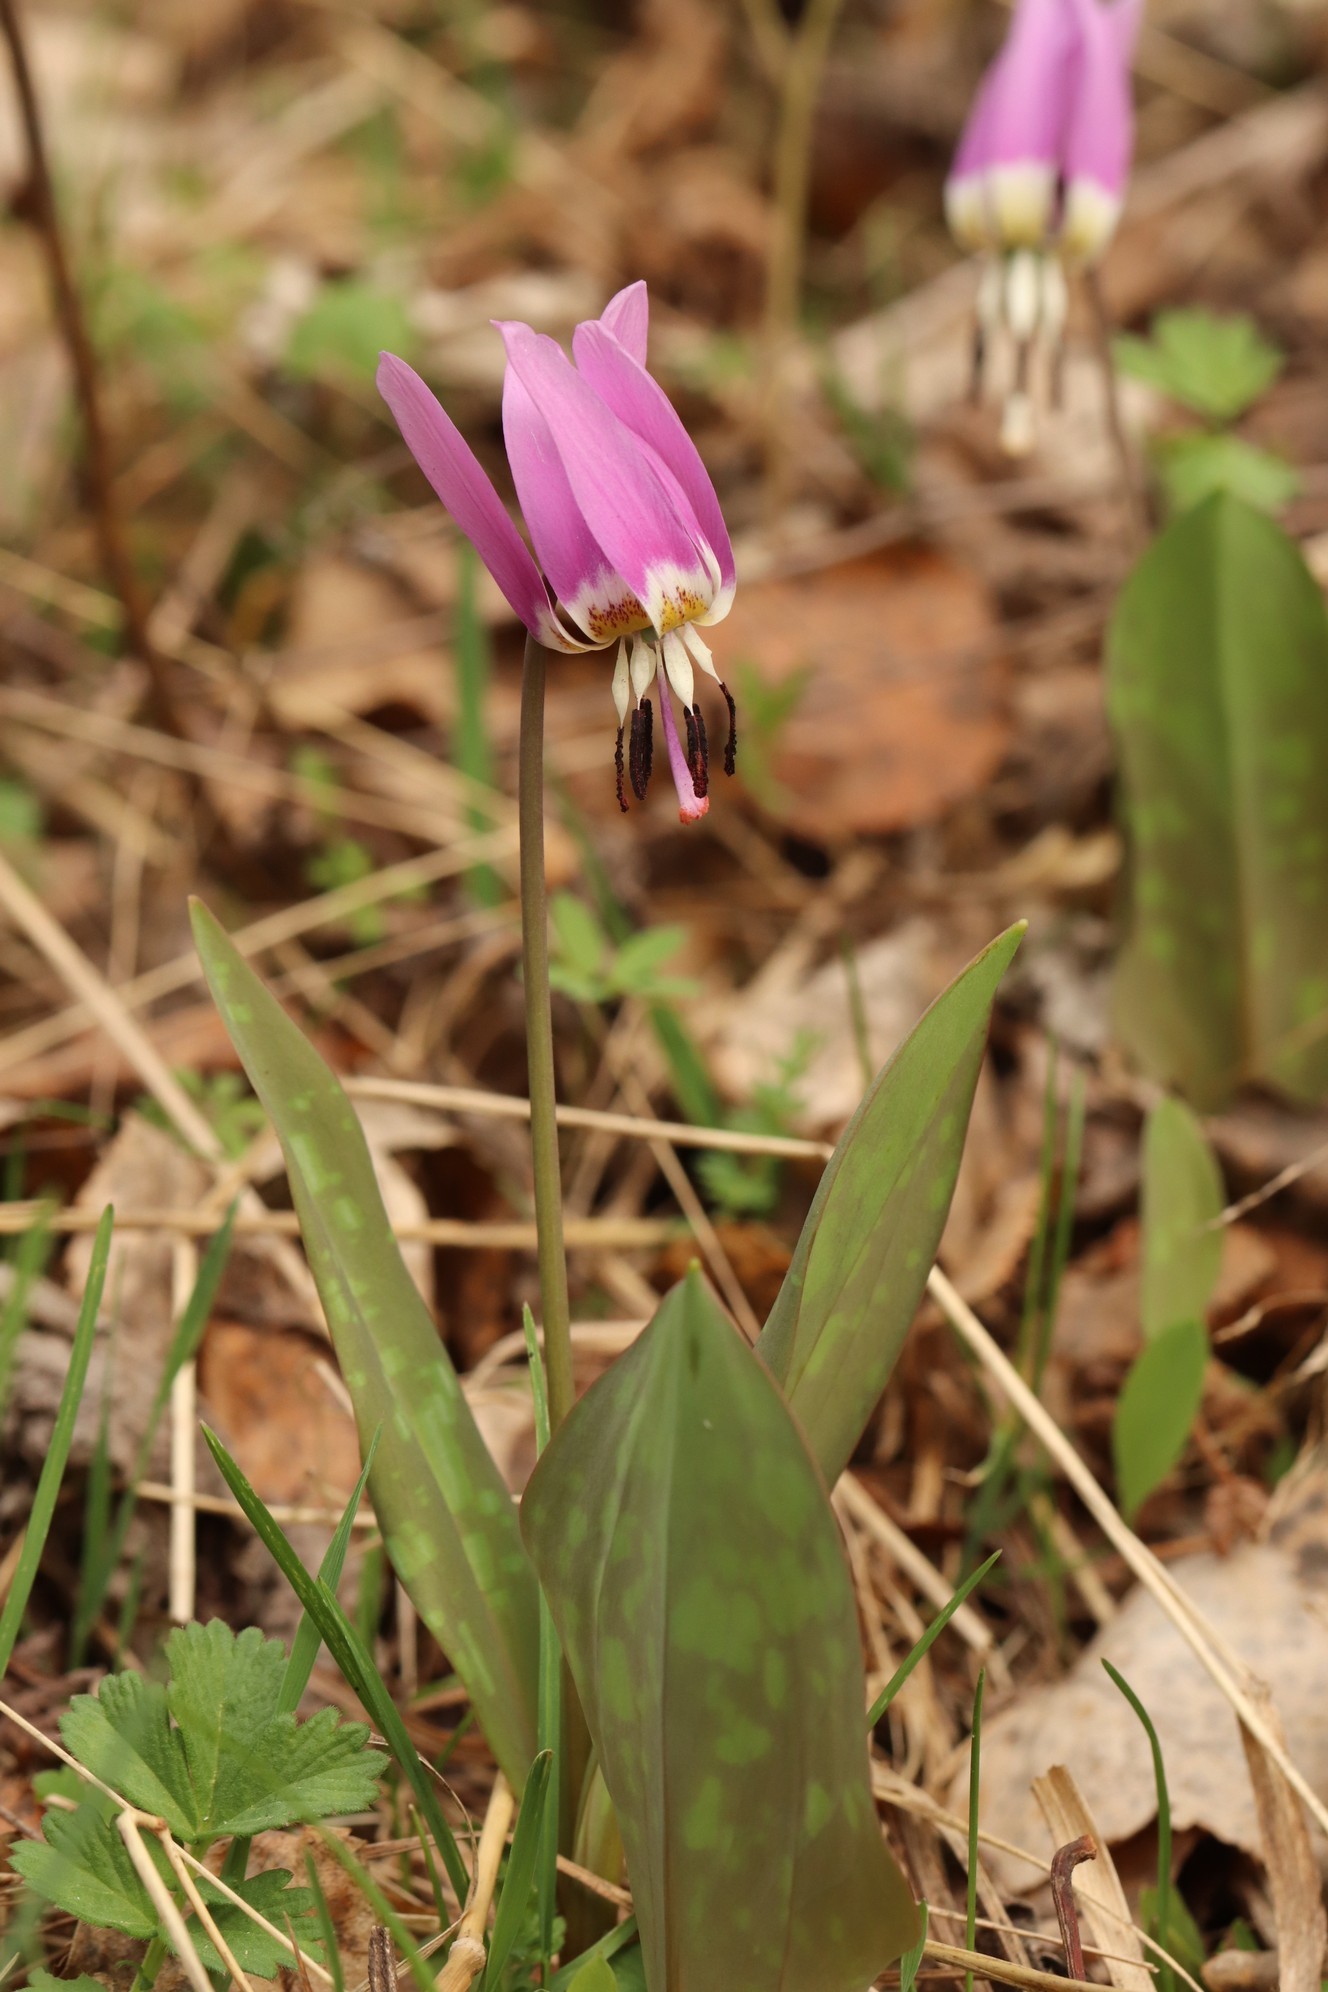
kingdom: Plantae
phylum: Tracheophyta
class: Liliopsida
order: Liliales
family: Liliaceae
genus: Erythronium
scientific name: Erythronium sulevii
